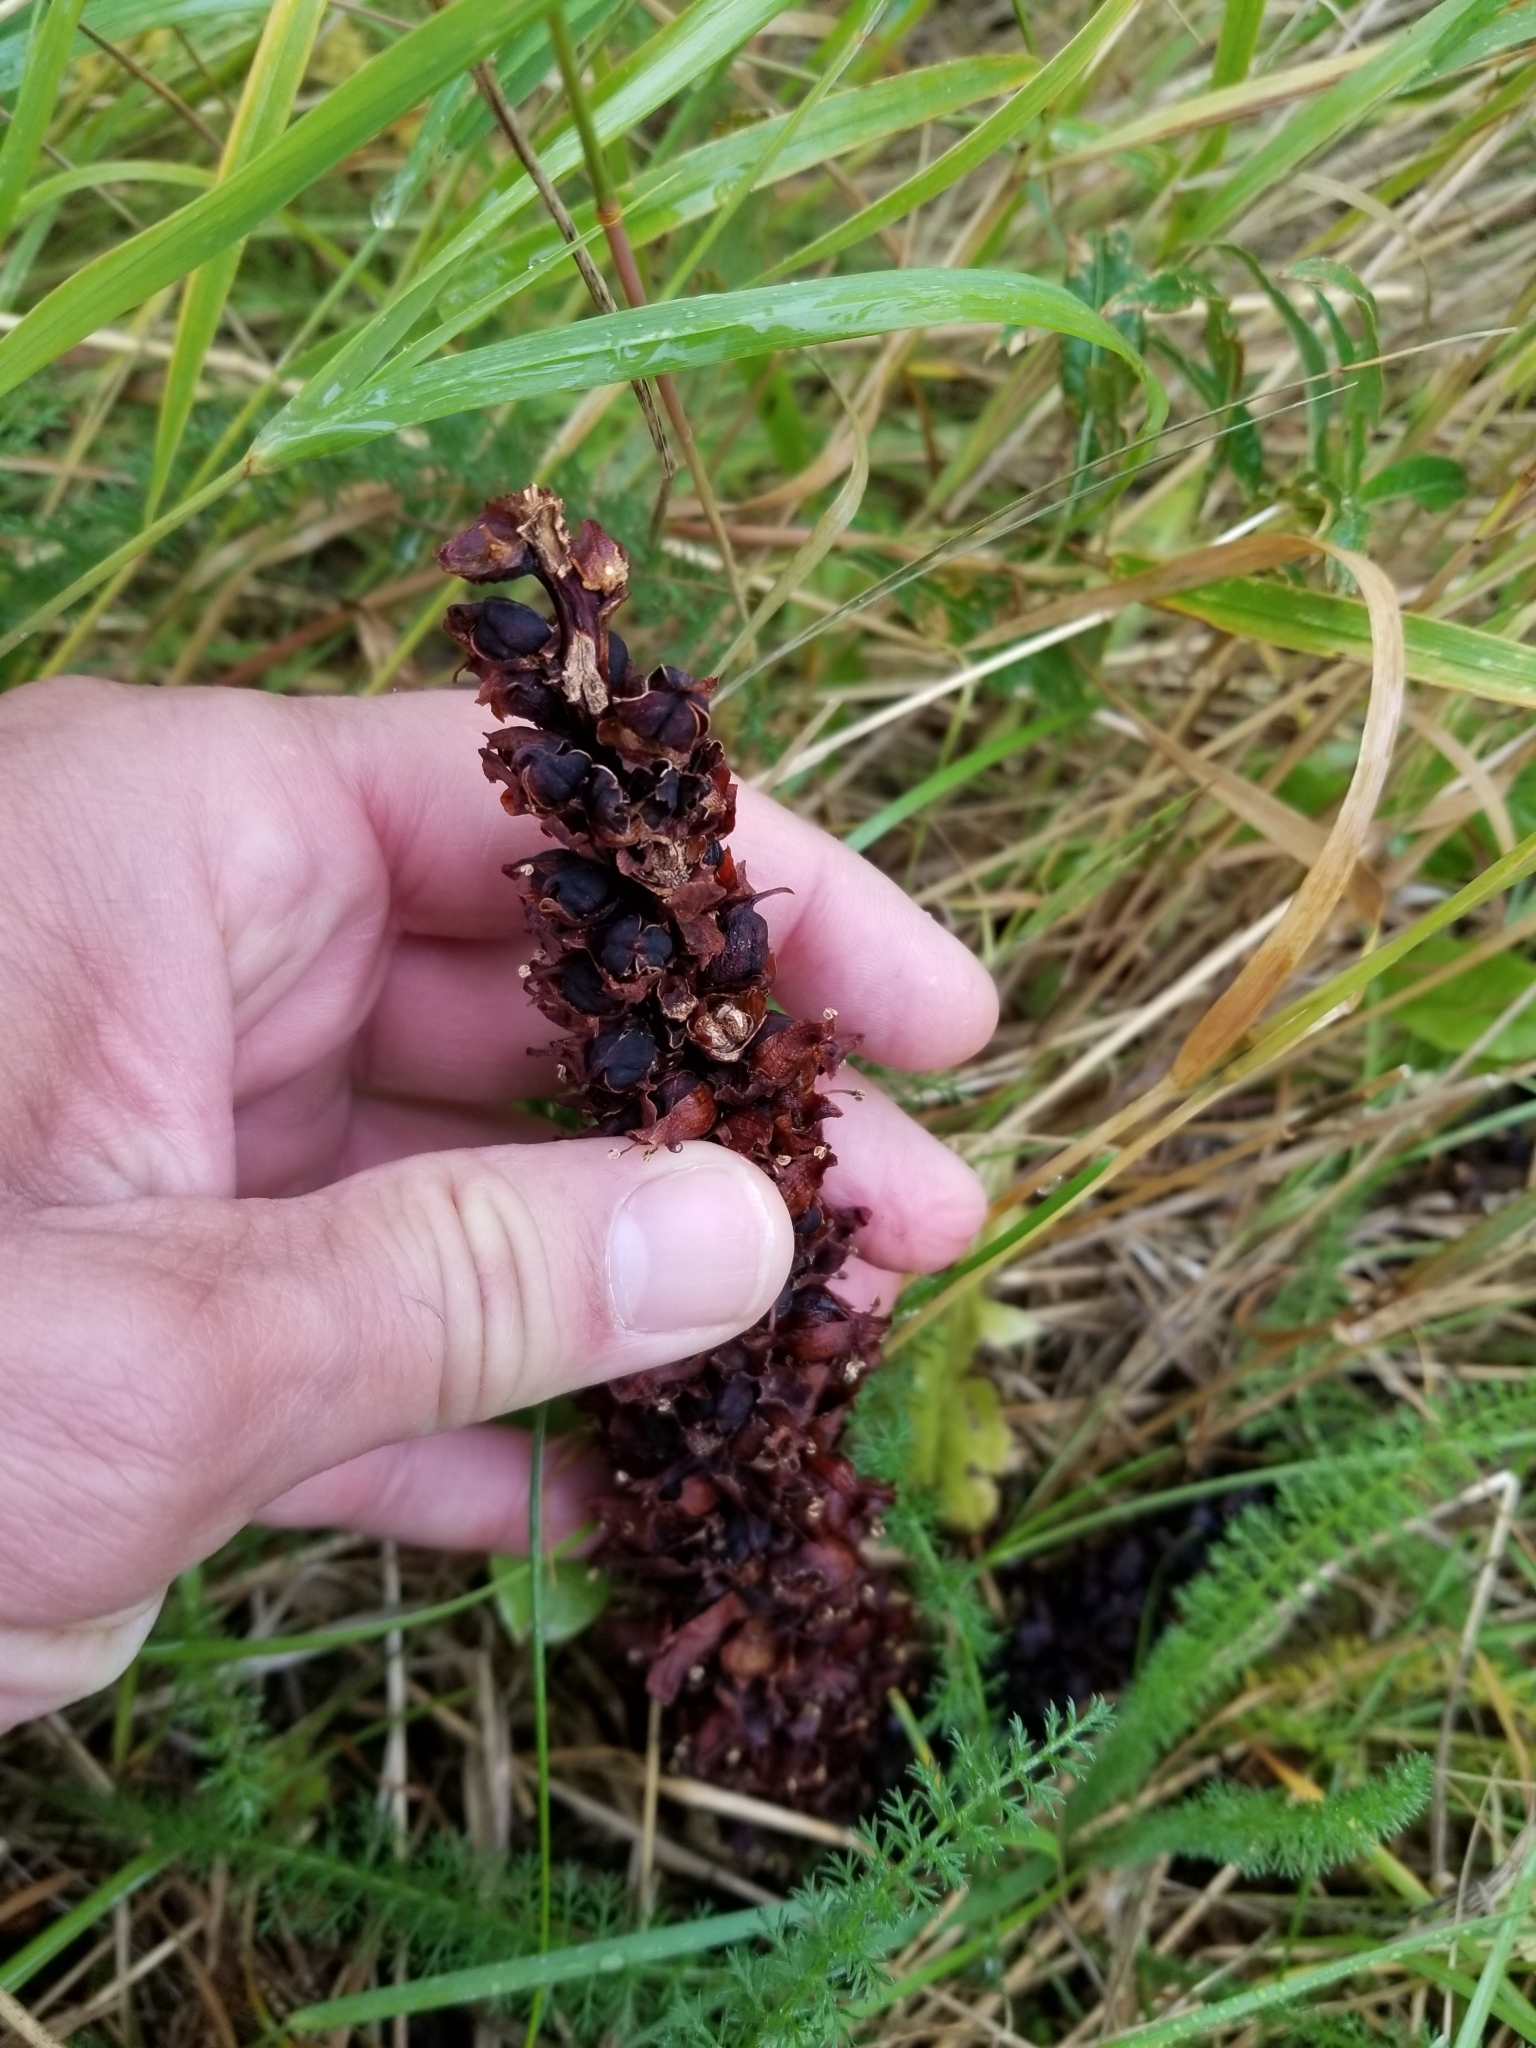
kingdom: Plantae
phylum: Tracheophyta
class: Magnoliopsida
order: Lamiales
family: Orobanchaceae
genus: Boschniakia
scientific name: Boschniakia rossica
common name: Poque
